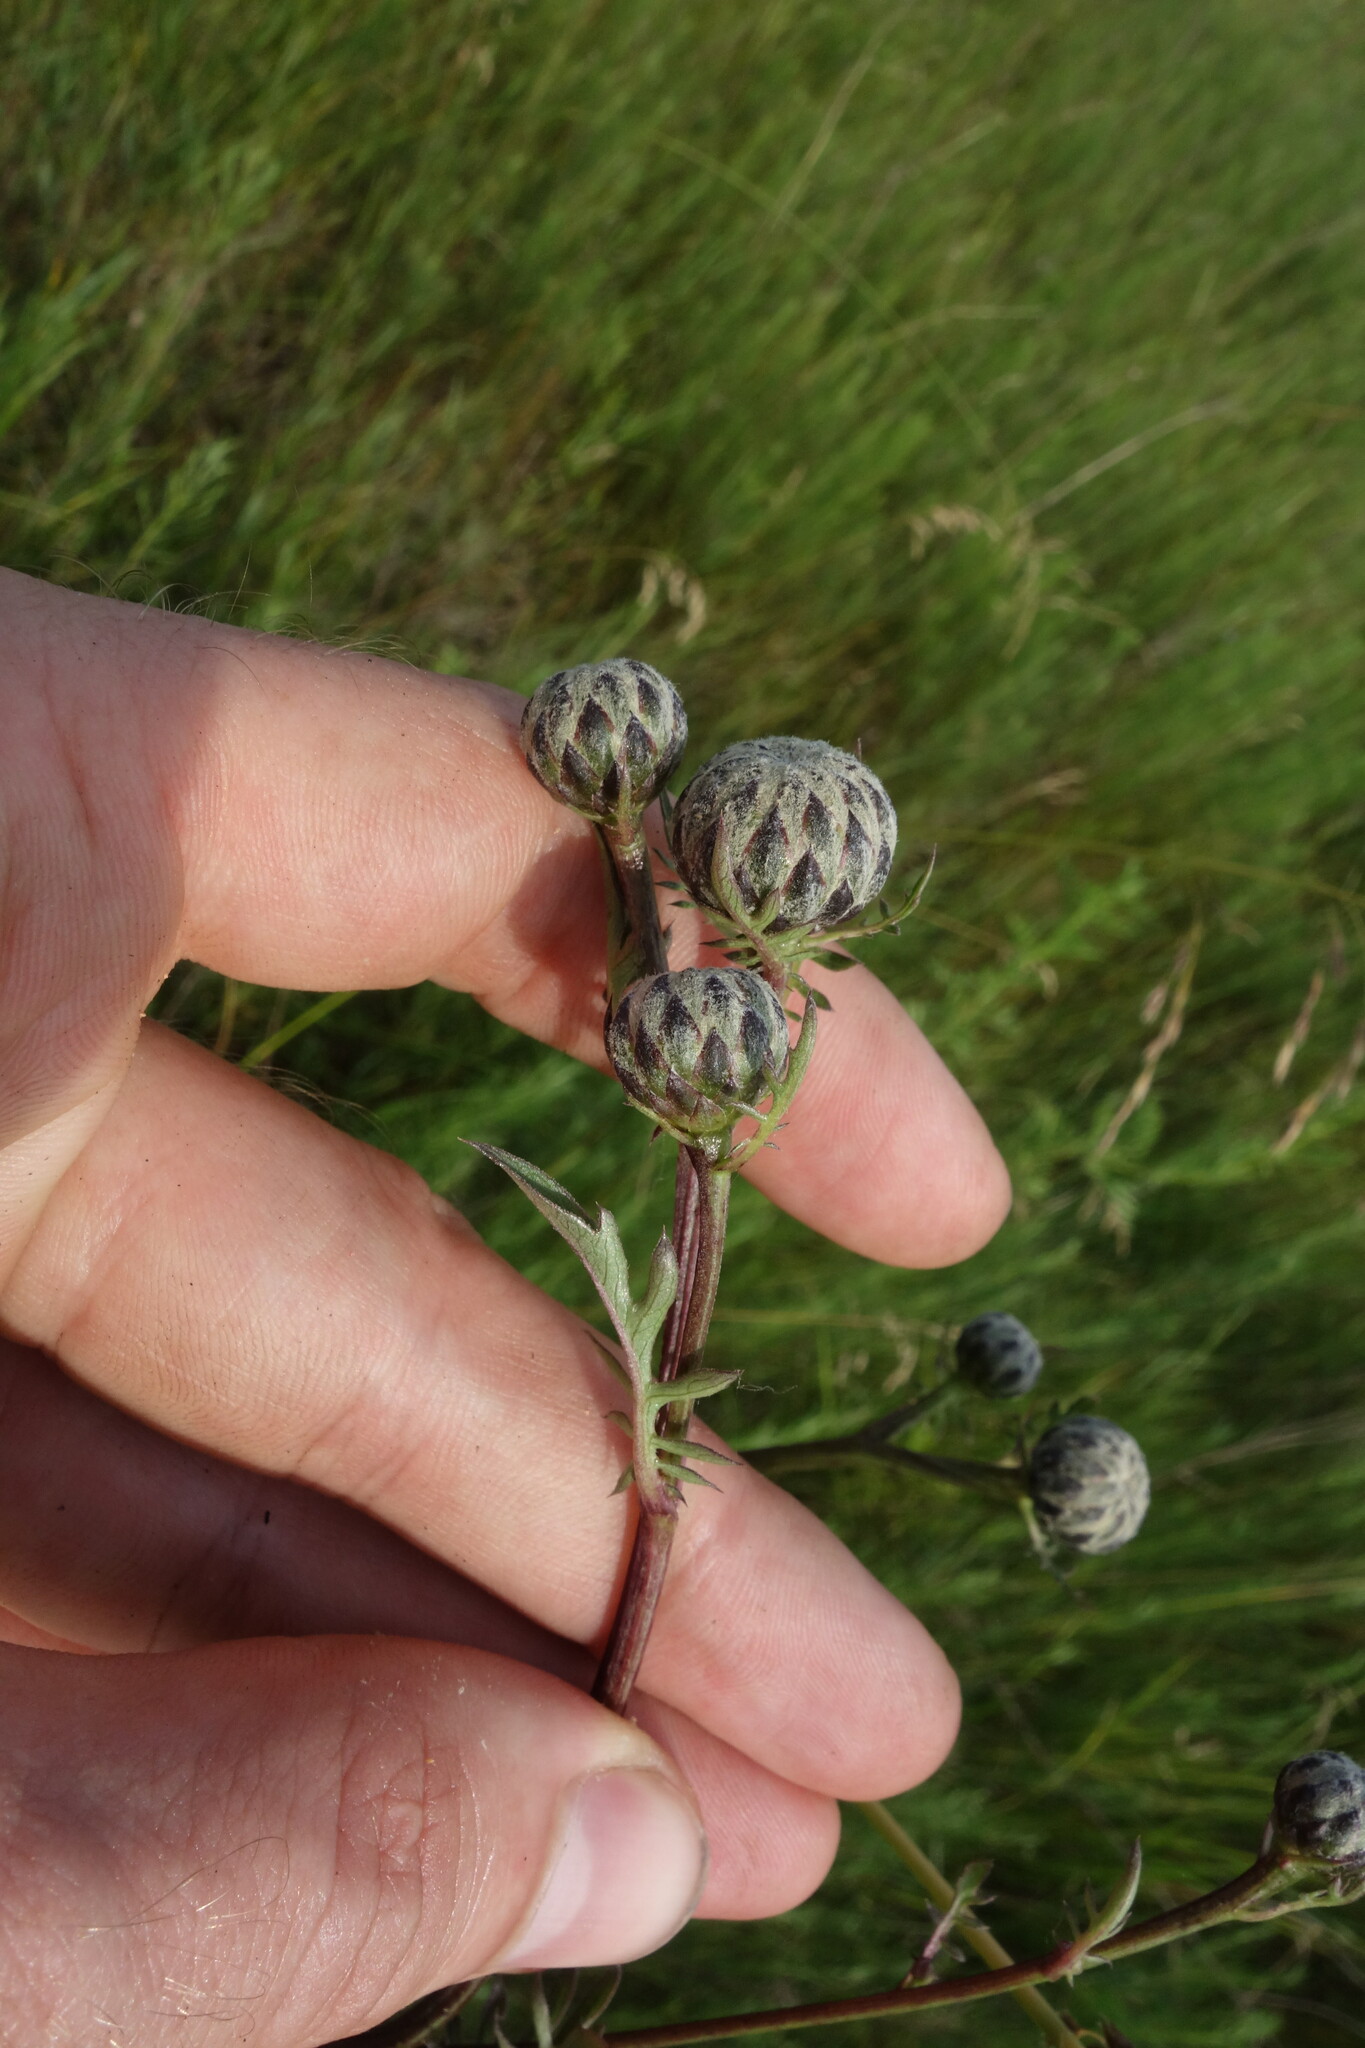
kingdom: Plantae
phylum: Tracheophyta
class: Magnoliopsida
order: Asterales
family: Asteraceae
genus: Serratula
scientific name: Serratula coronata
